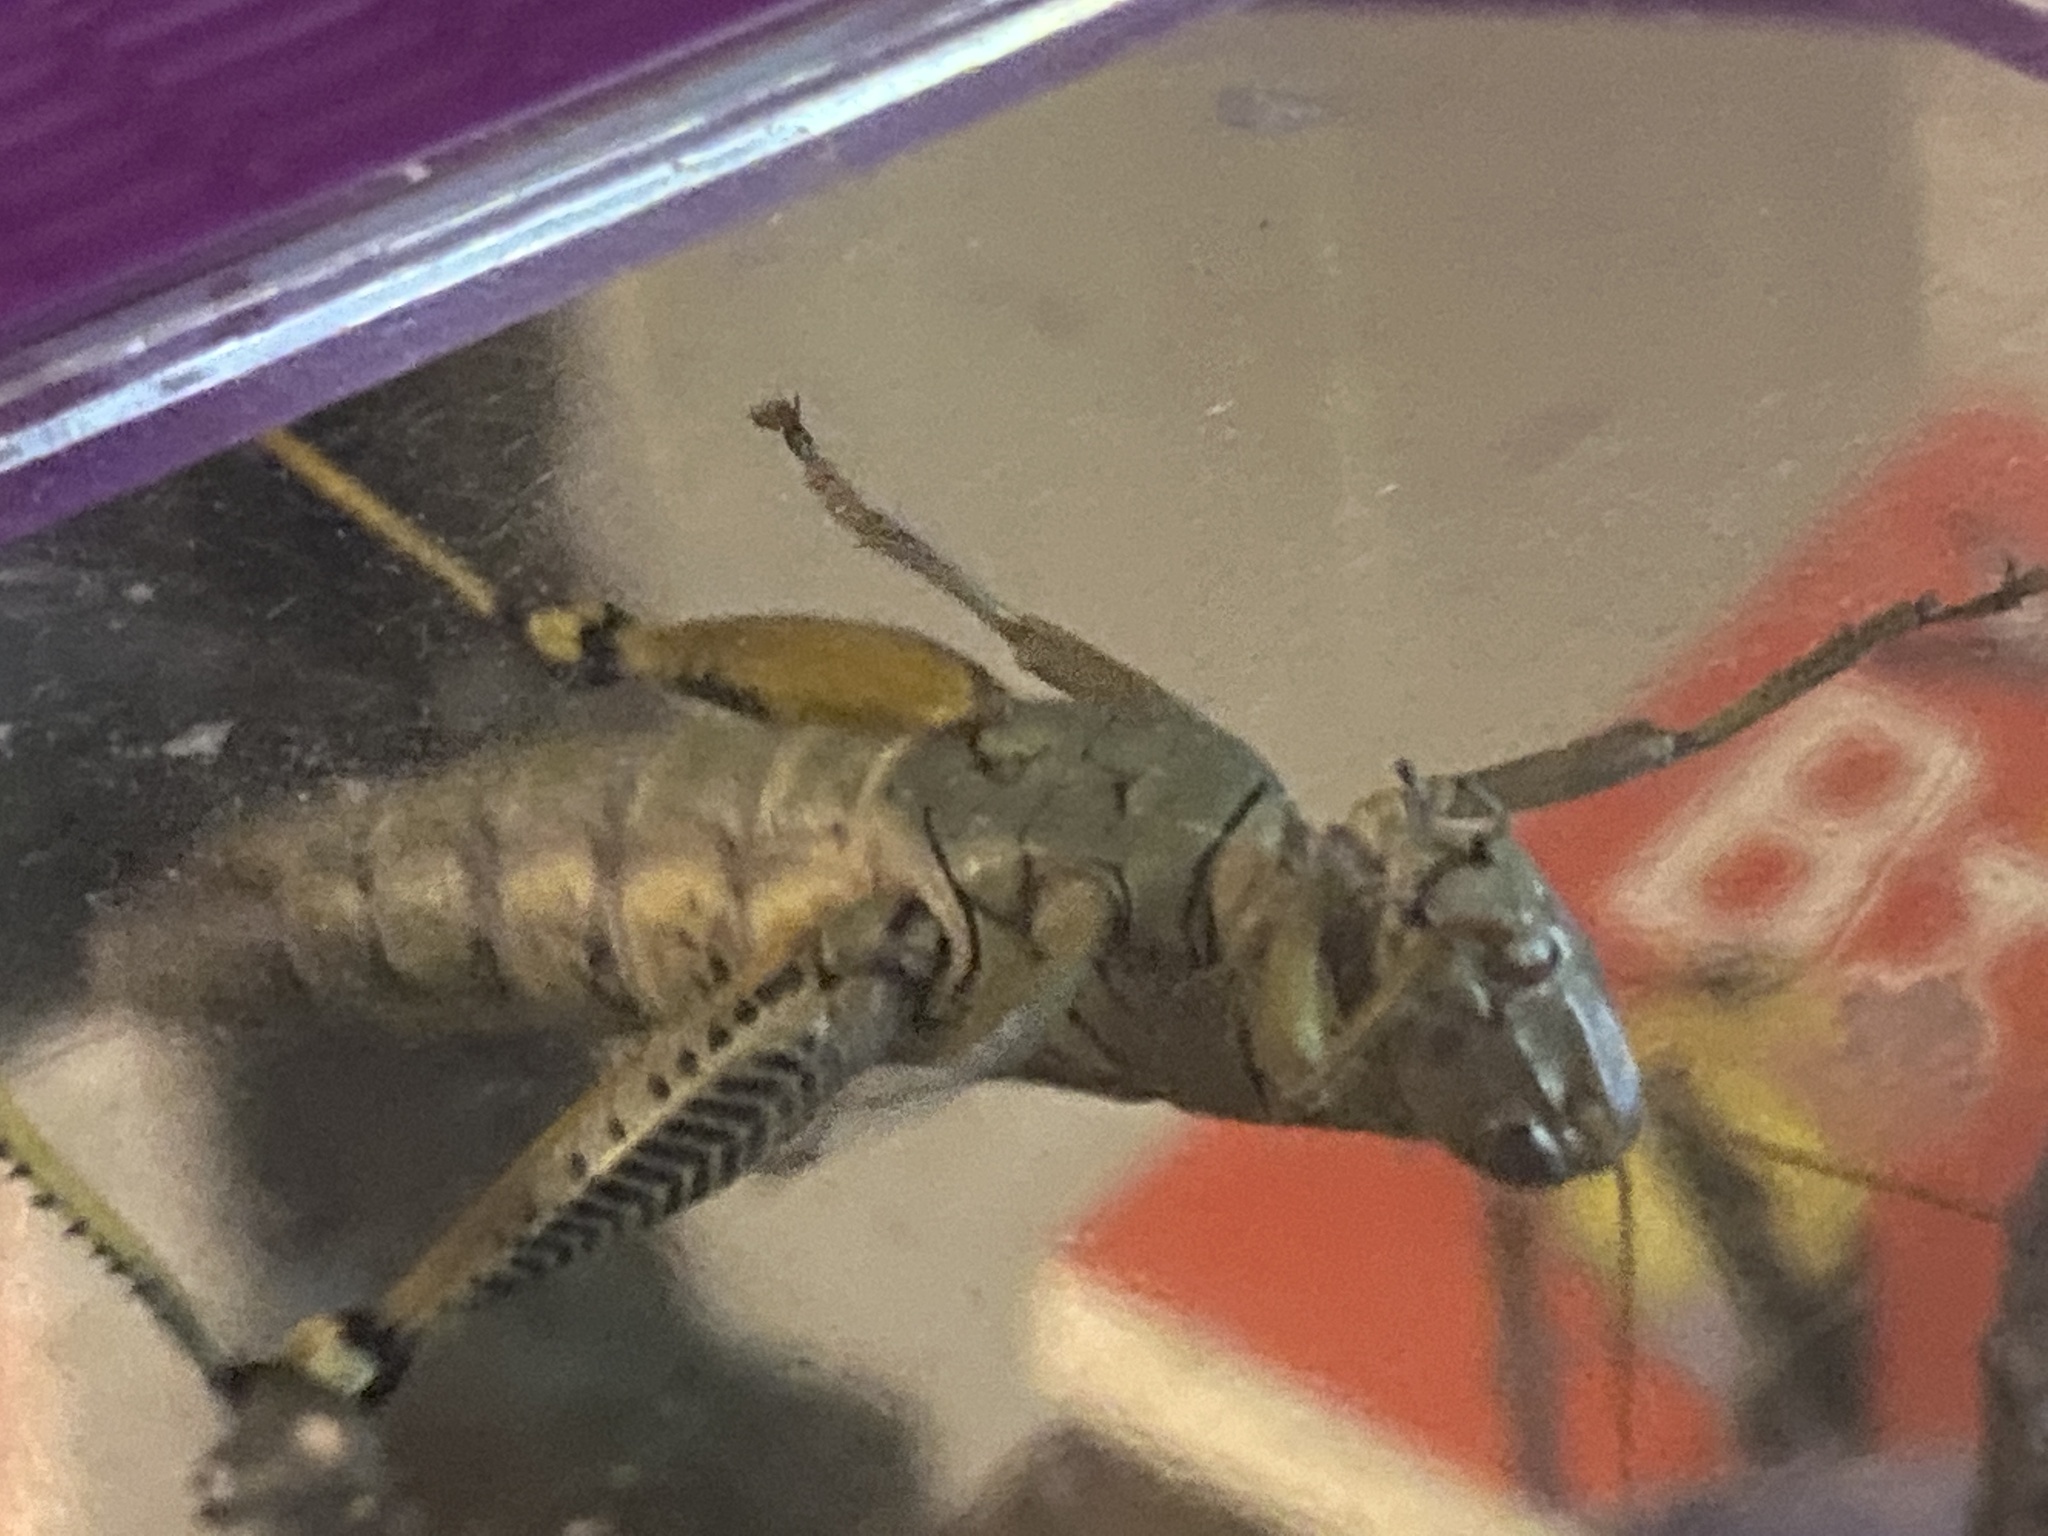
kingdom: Animalia
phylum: Arthropoda
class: Insecta
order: Orthoptera
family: Acrididae
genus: Melanoplus
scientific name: Melanoplus differentialis
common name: Differential grasshopper
